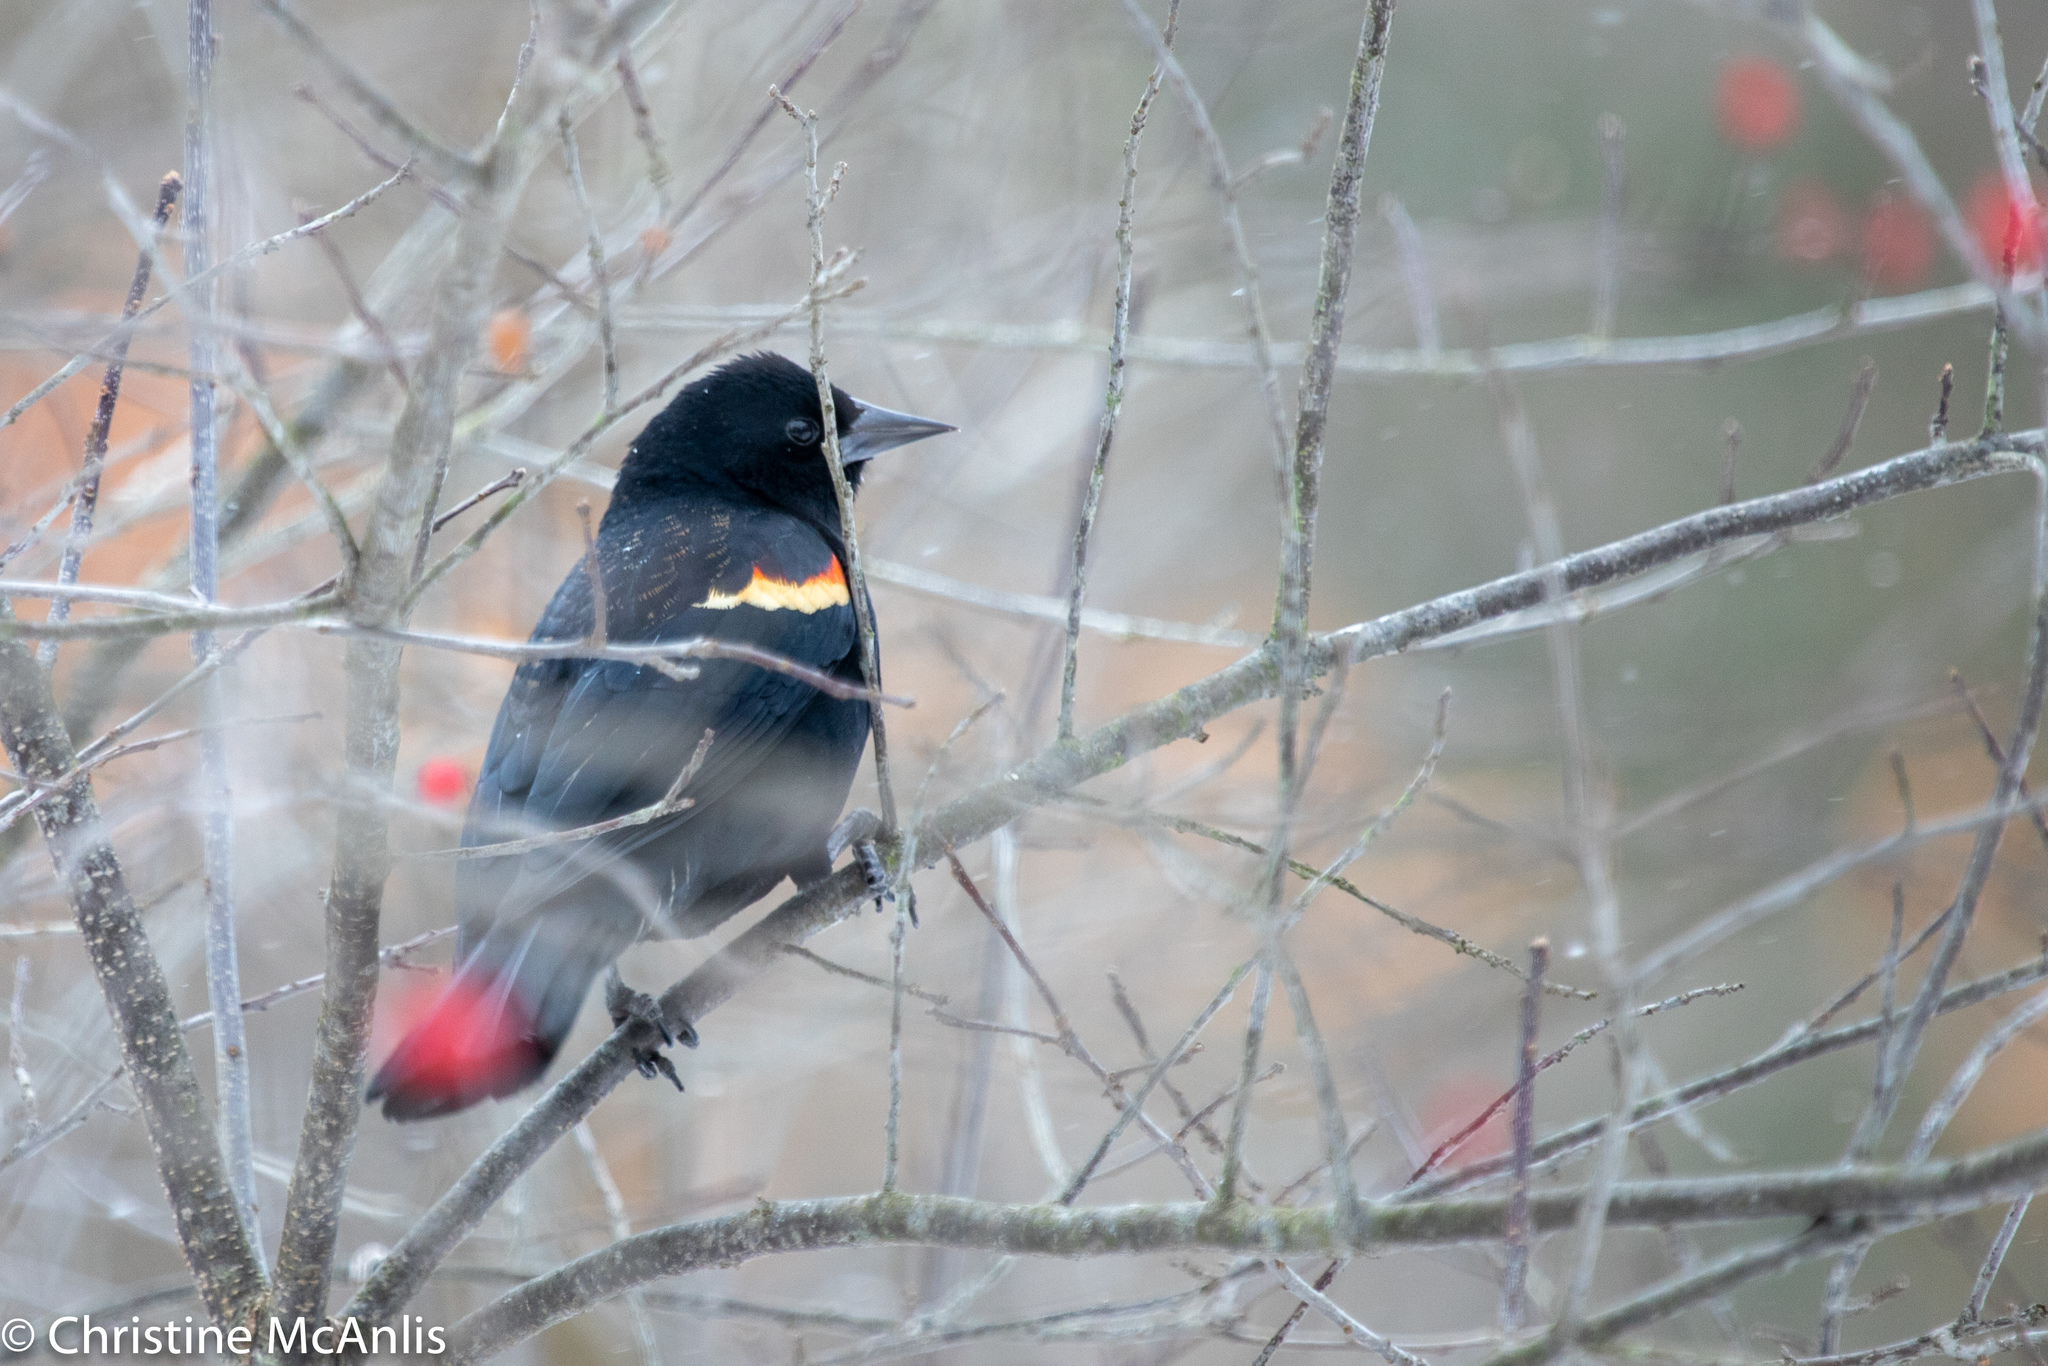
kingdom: Animalia
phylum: Chordata
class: Aves
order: Passeriformes
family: Icteridae
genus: Agelaius
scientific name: Agelaius phoeniceus
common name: Red-winged blackbird
